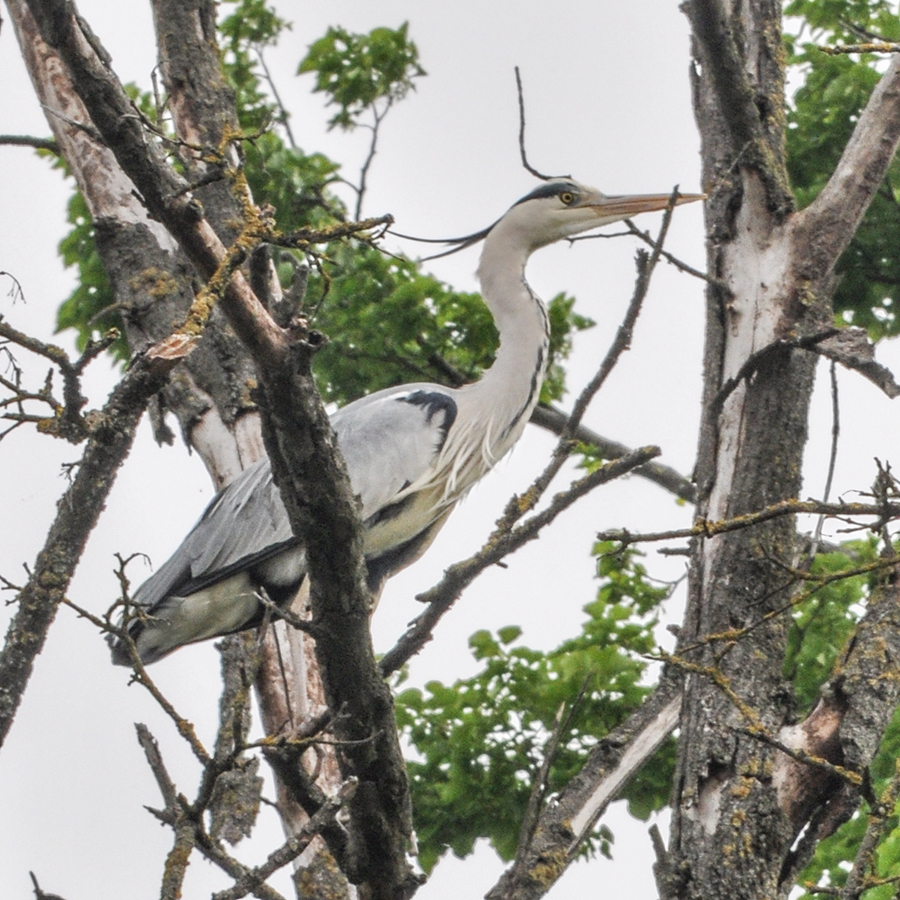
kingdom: Animalia
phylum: Chordata
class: Aves
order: Pelecaniformes
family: Ardeidae
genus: Ardea
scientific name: Ardea cinerea
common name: Grey heron
